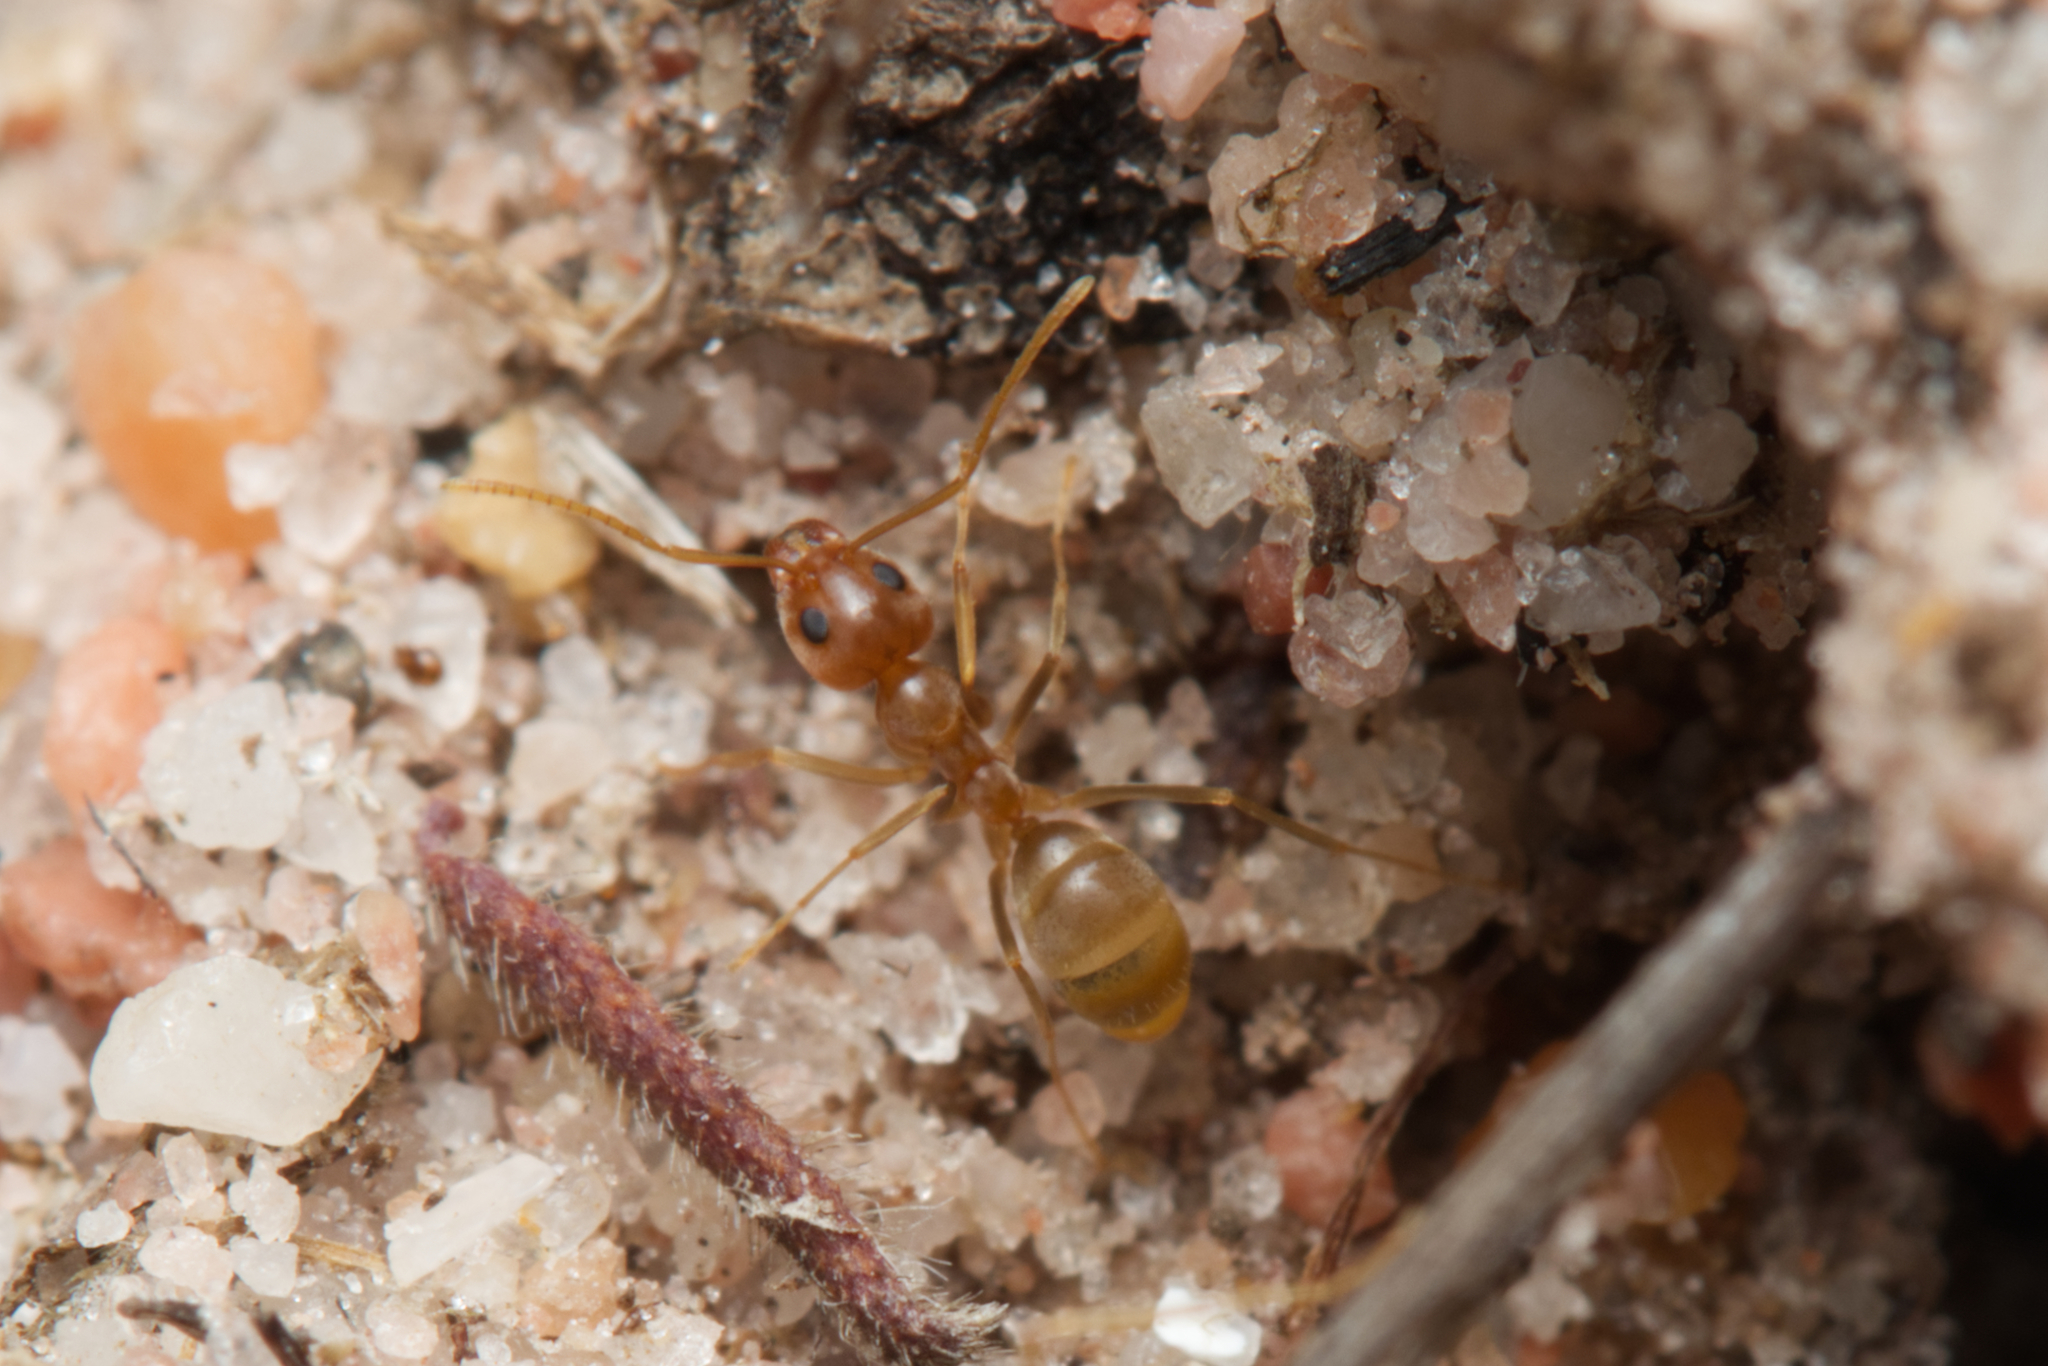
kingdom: Animalia
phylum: Arthropoda
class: Insecta
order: Hymenoptera
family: Formicidae
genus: Iridomyrmex
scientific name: Iridomyrmex pallidus
